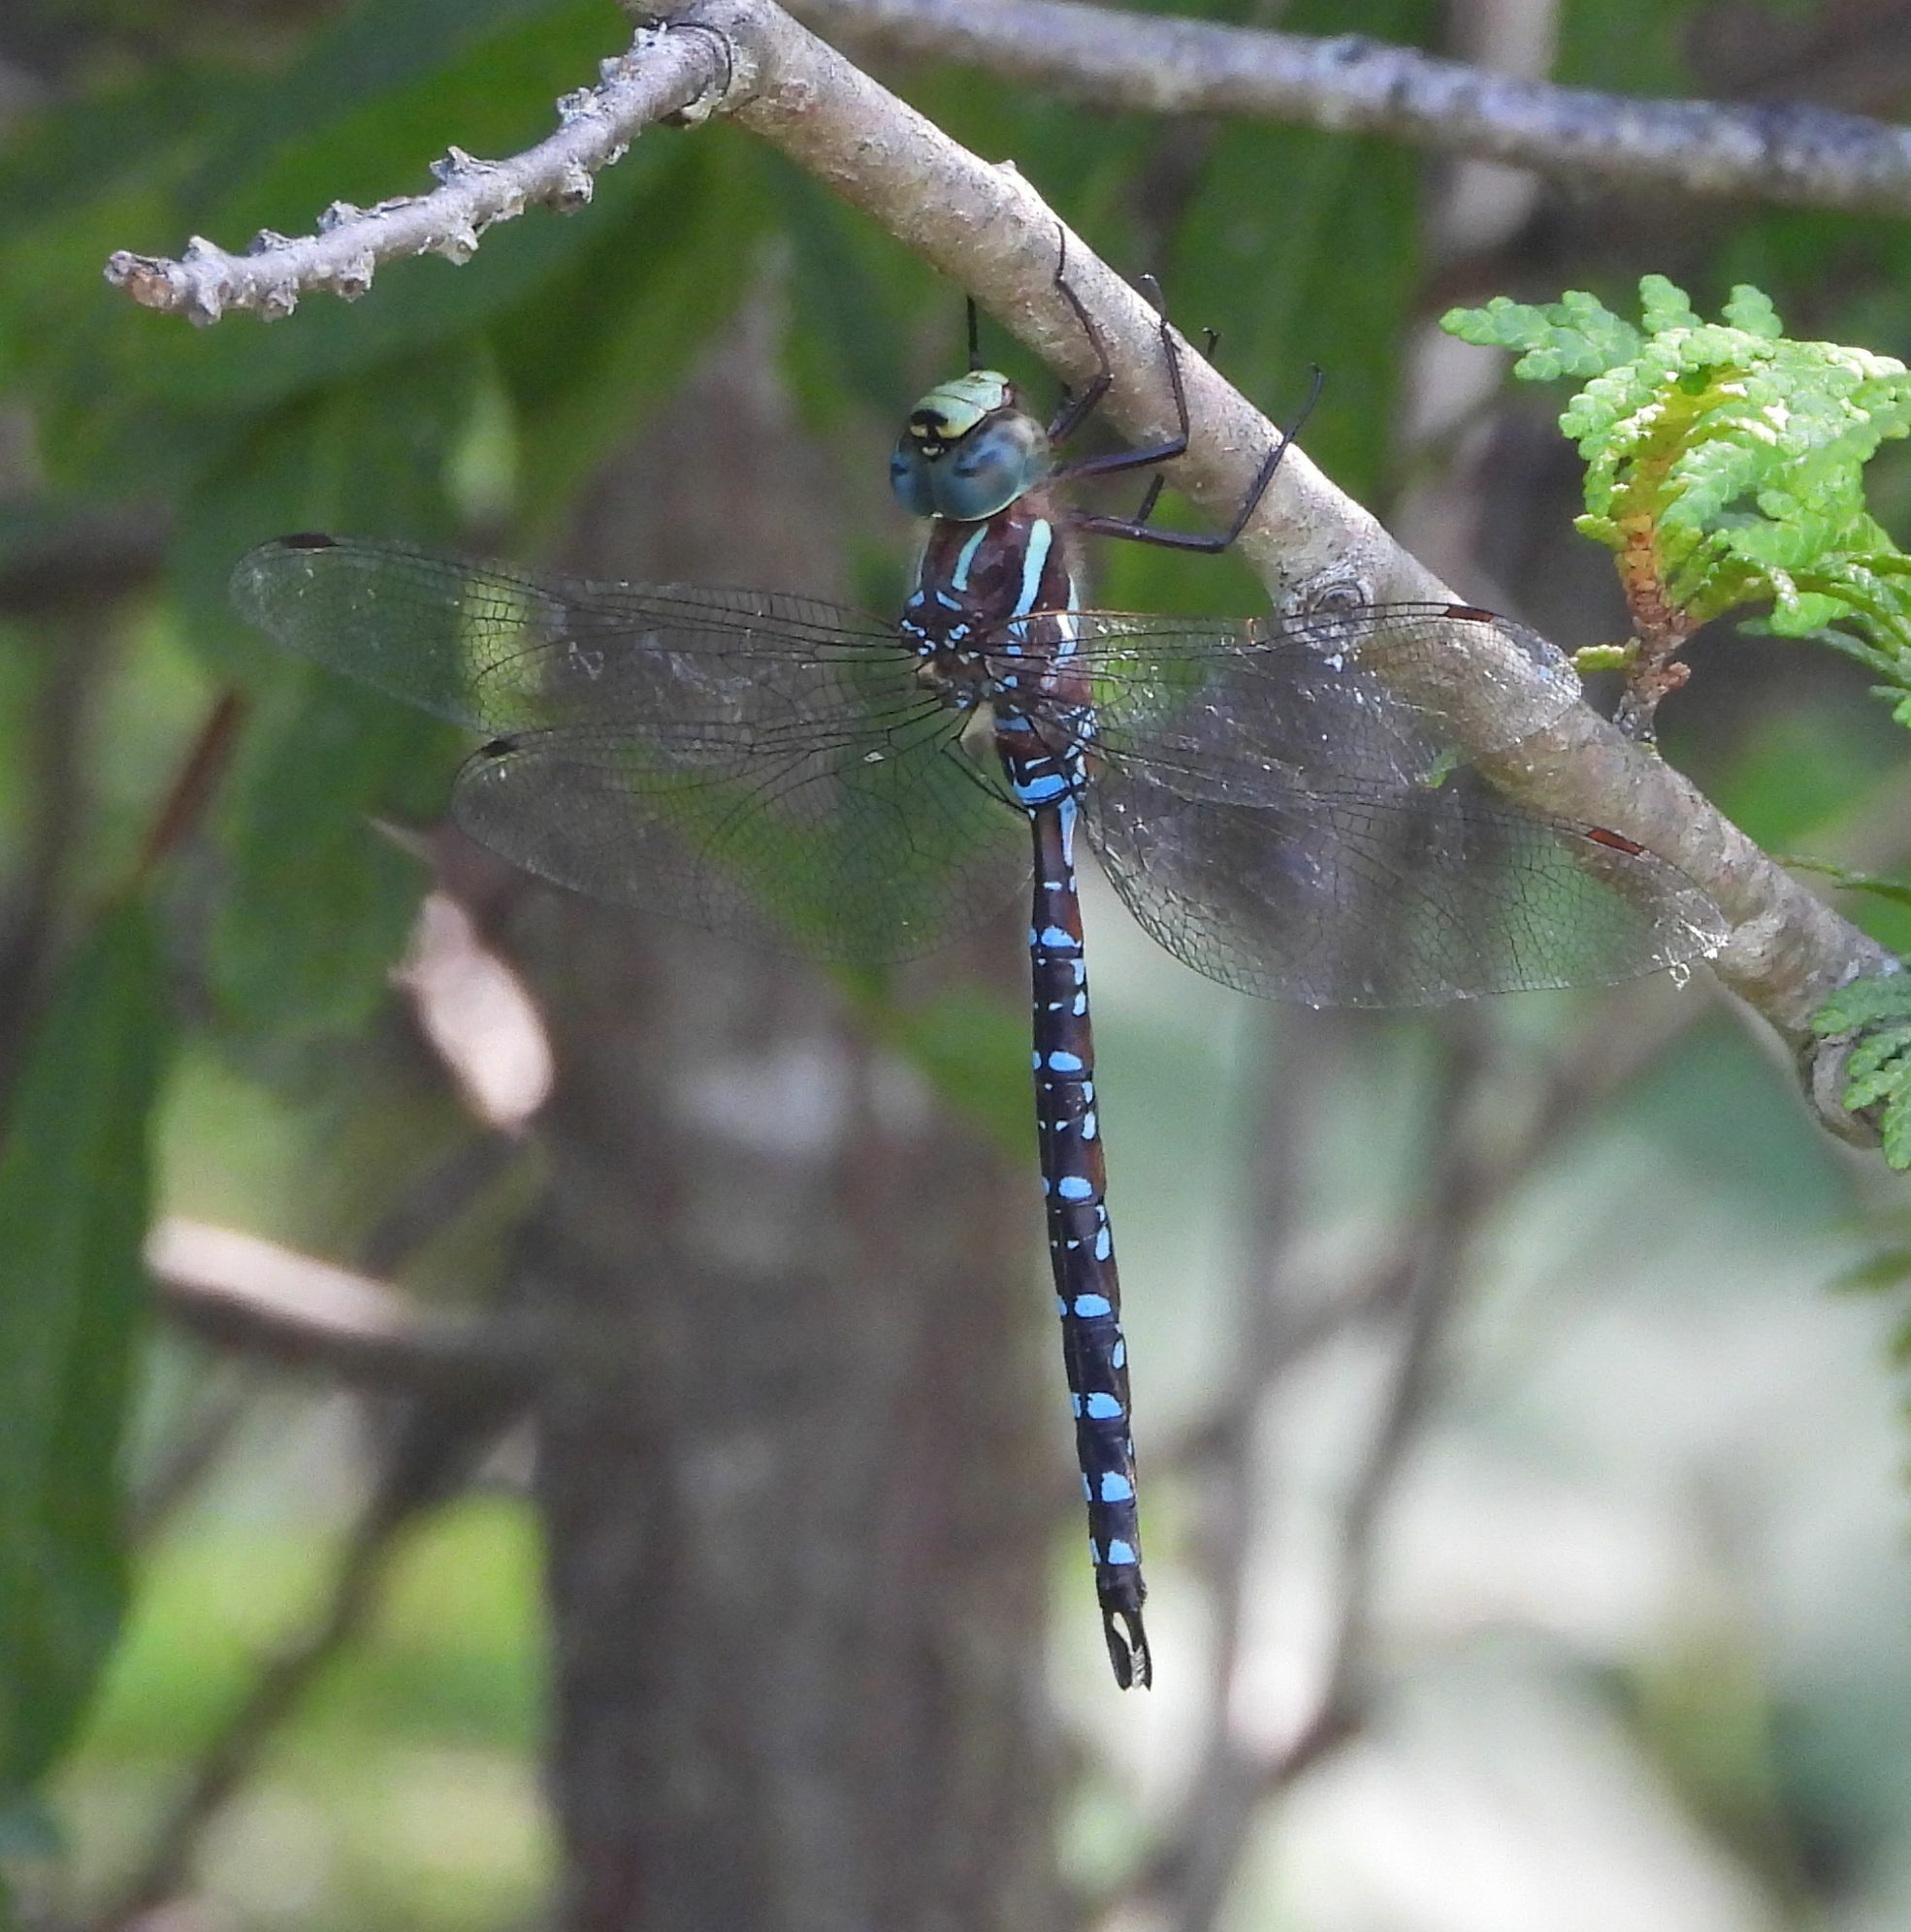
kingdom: Animalia
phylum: Arthropoda
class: Insecta
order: Odonata
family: Aeshnidae
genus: Aeshna
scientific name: Aeshna tuberculifera
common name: Aeschne à tubercules
